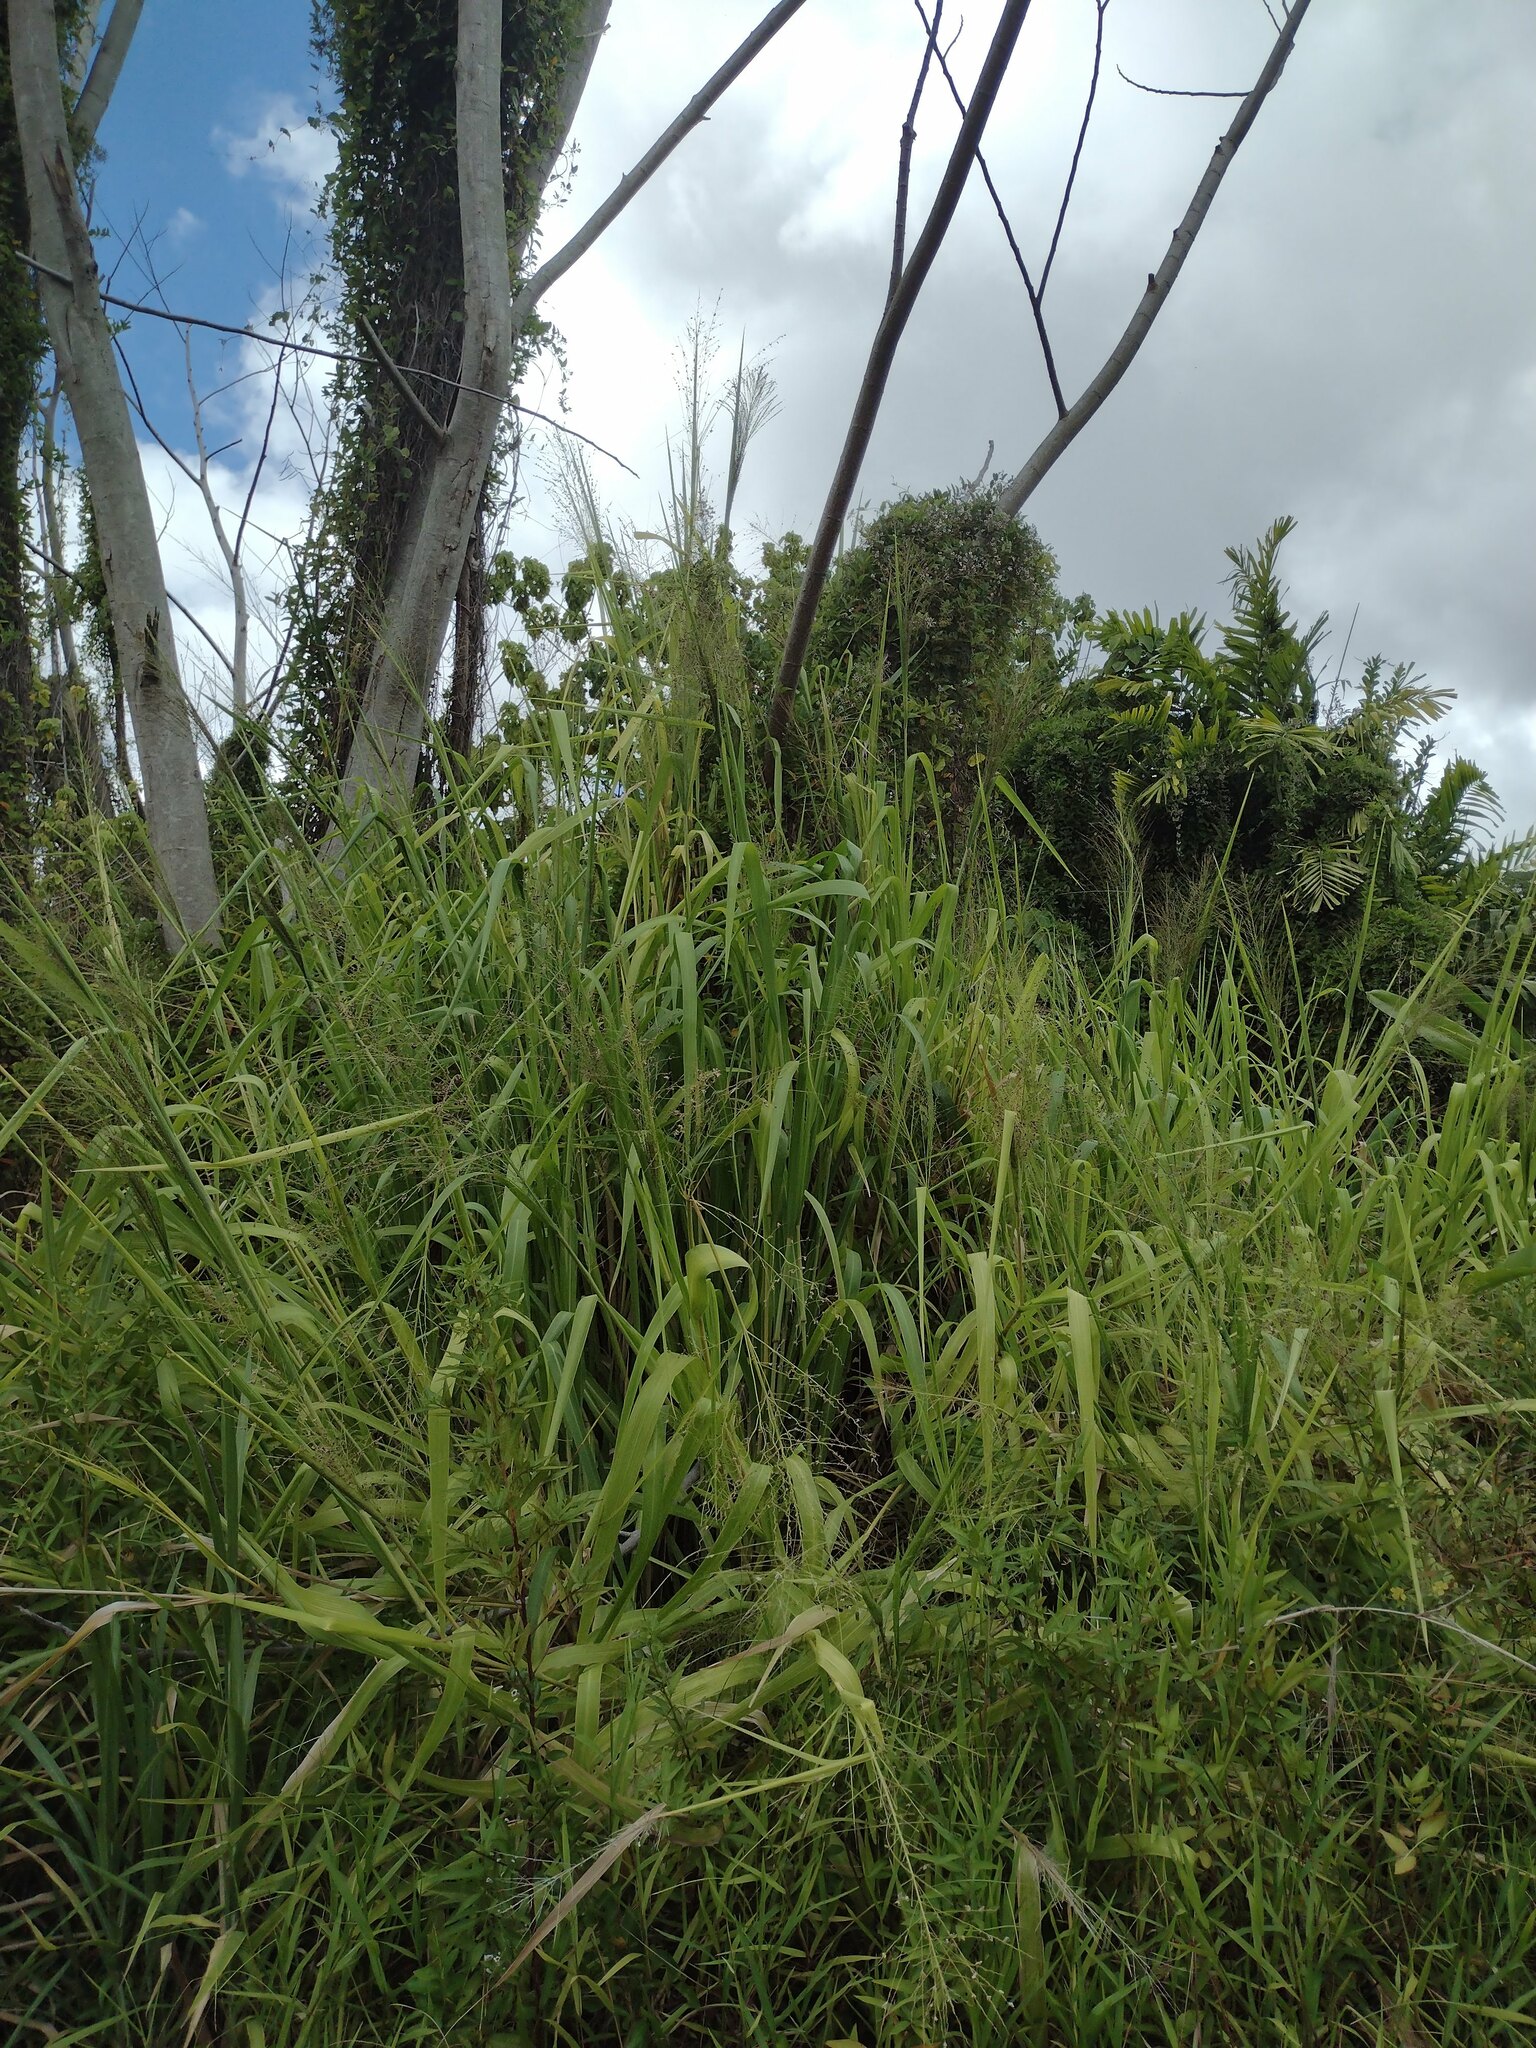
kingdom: Plantae
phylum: Tracheophyta
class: Liliopsida
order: Poales
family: Poaceae
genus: Megathyrsus
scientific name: Megathyrsus maximus
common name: Guineagrass
